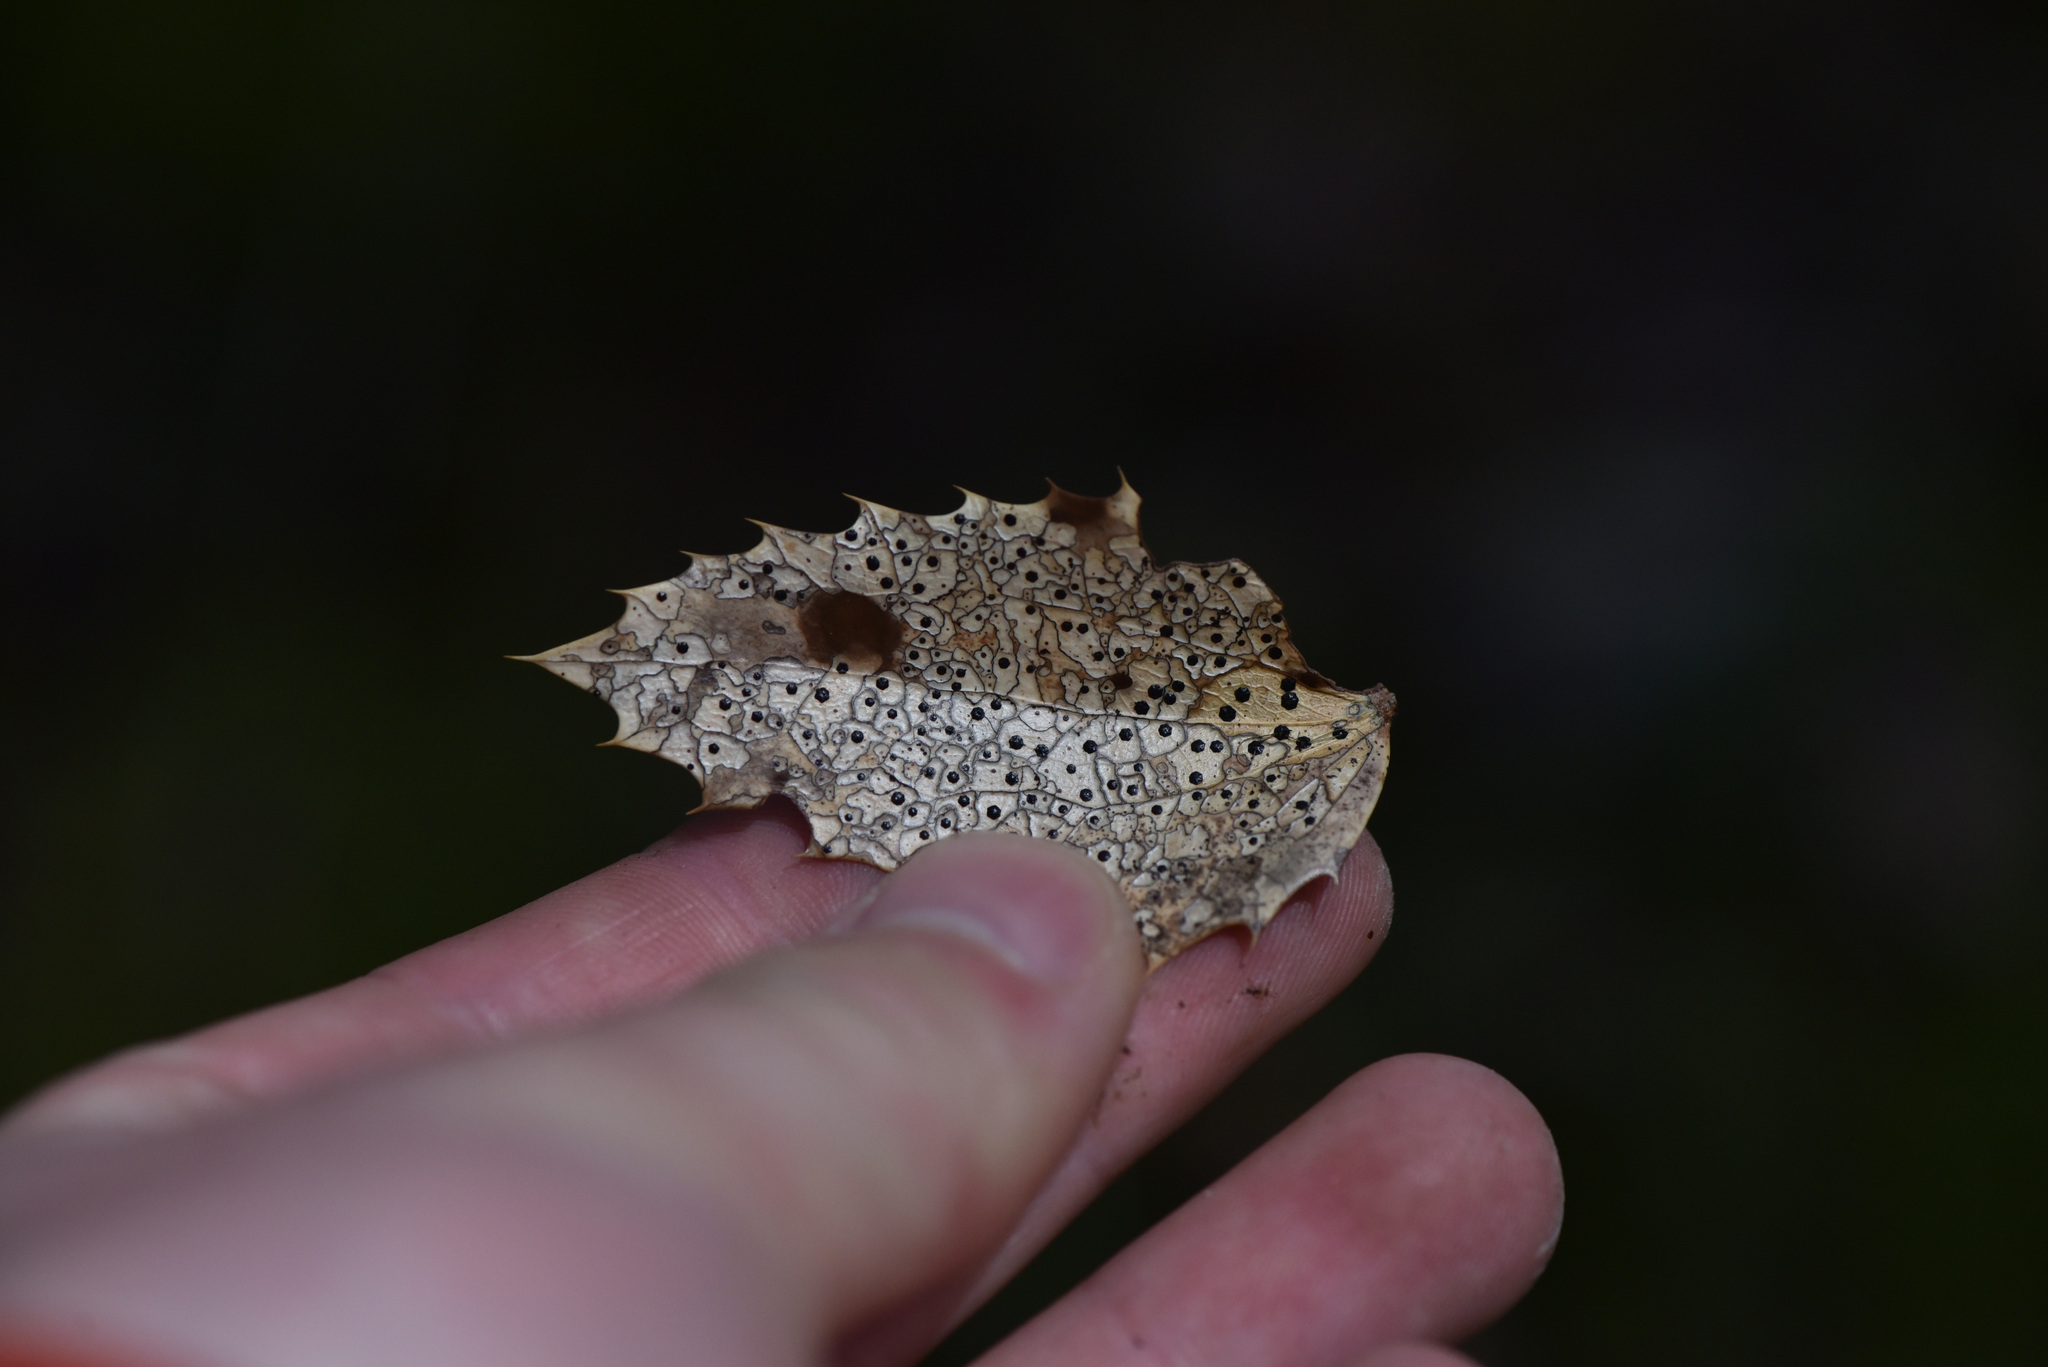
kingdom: Fungi
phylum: Ascomycota
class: Leotiomycetes
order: Rhytismatales
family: Rhytismataceae
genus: Coccomyces
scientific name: Coccomyces dentatus
